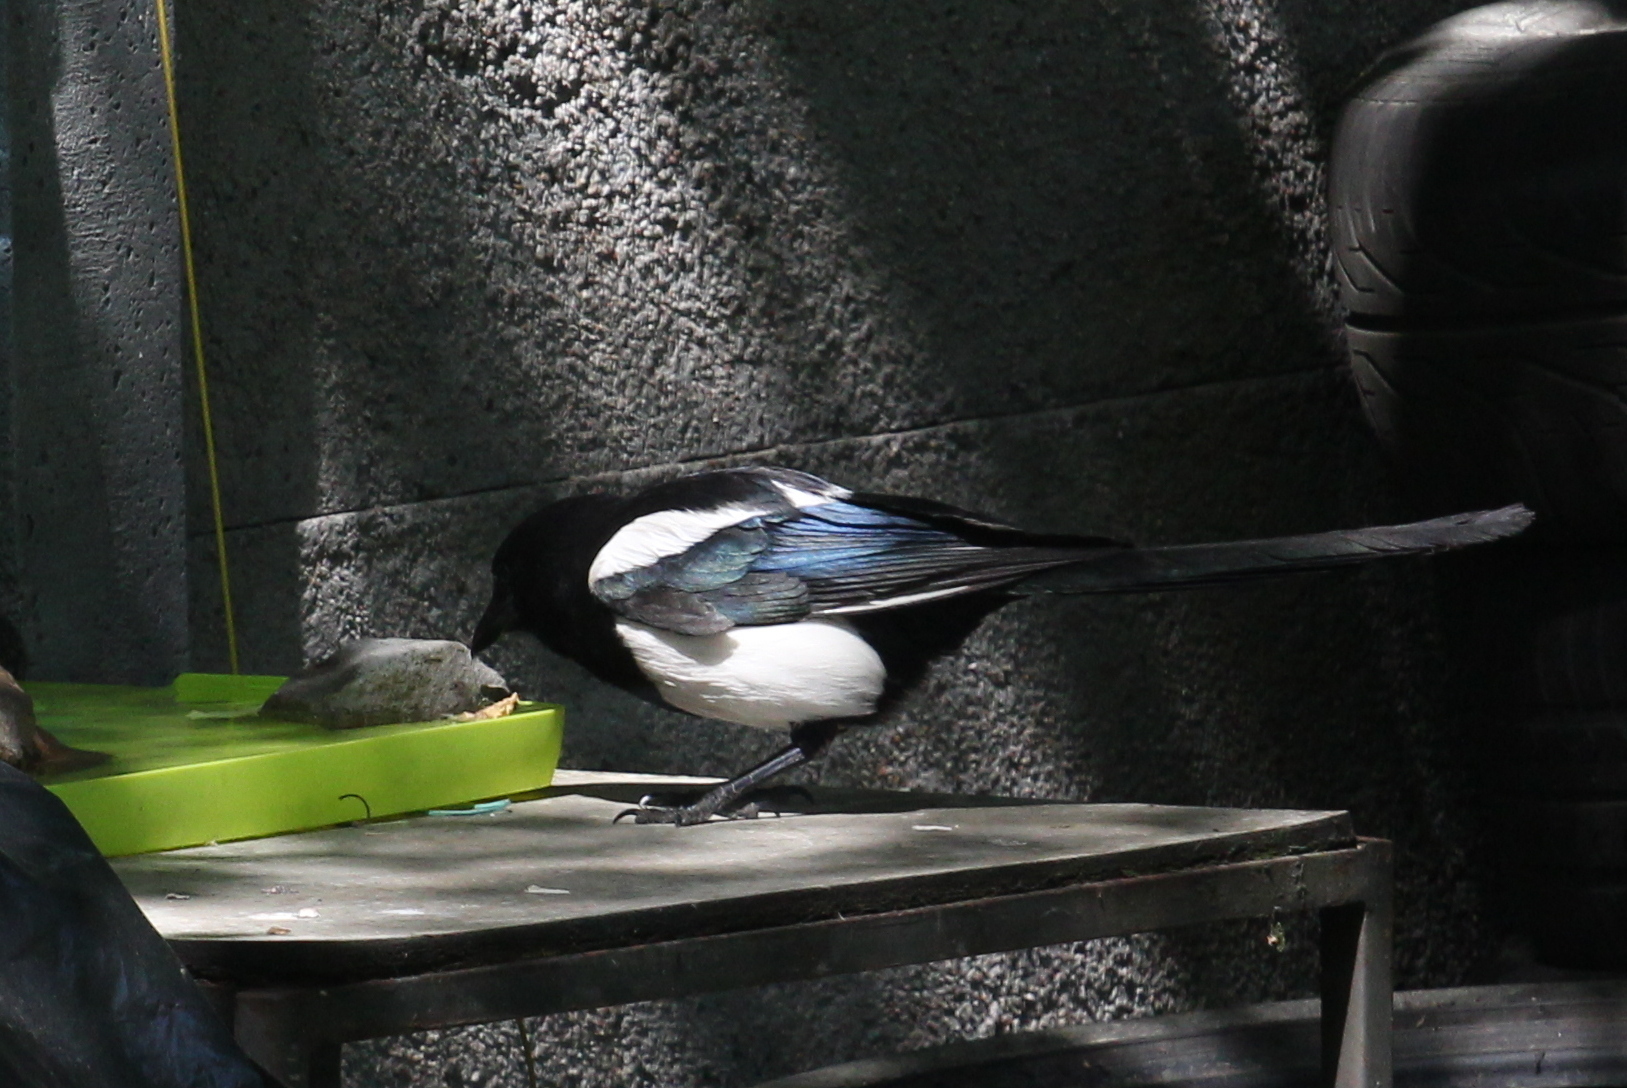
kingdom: Animalia
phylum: Chordata
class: Aves
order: Passeriformes
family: Corvidae
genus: Pica
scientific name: Pica pica
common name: Eurasian magpie
